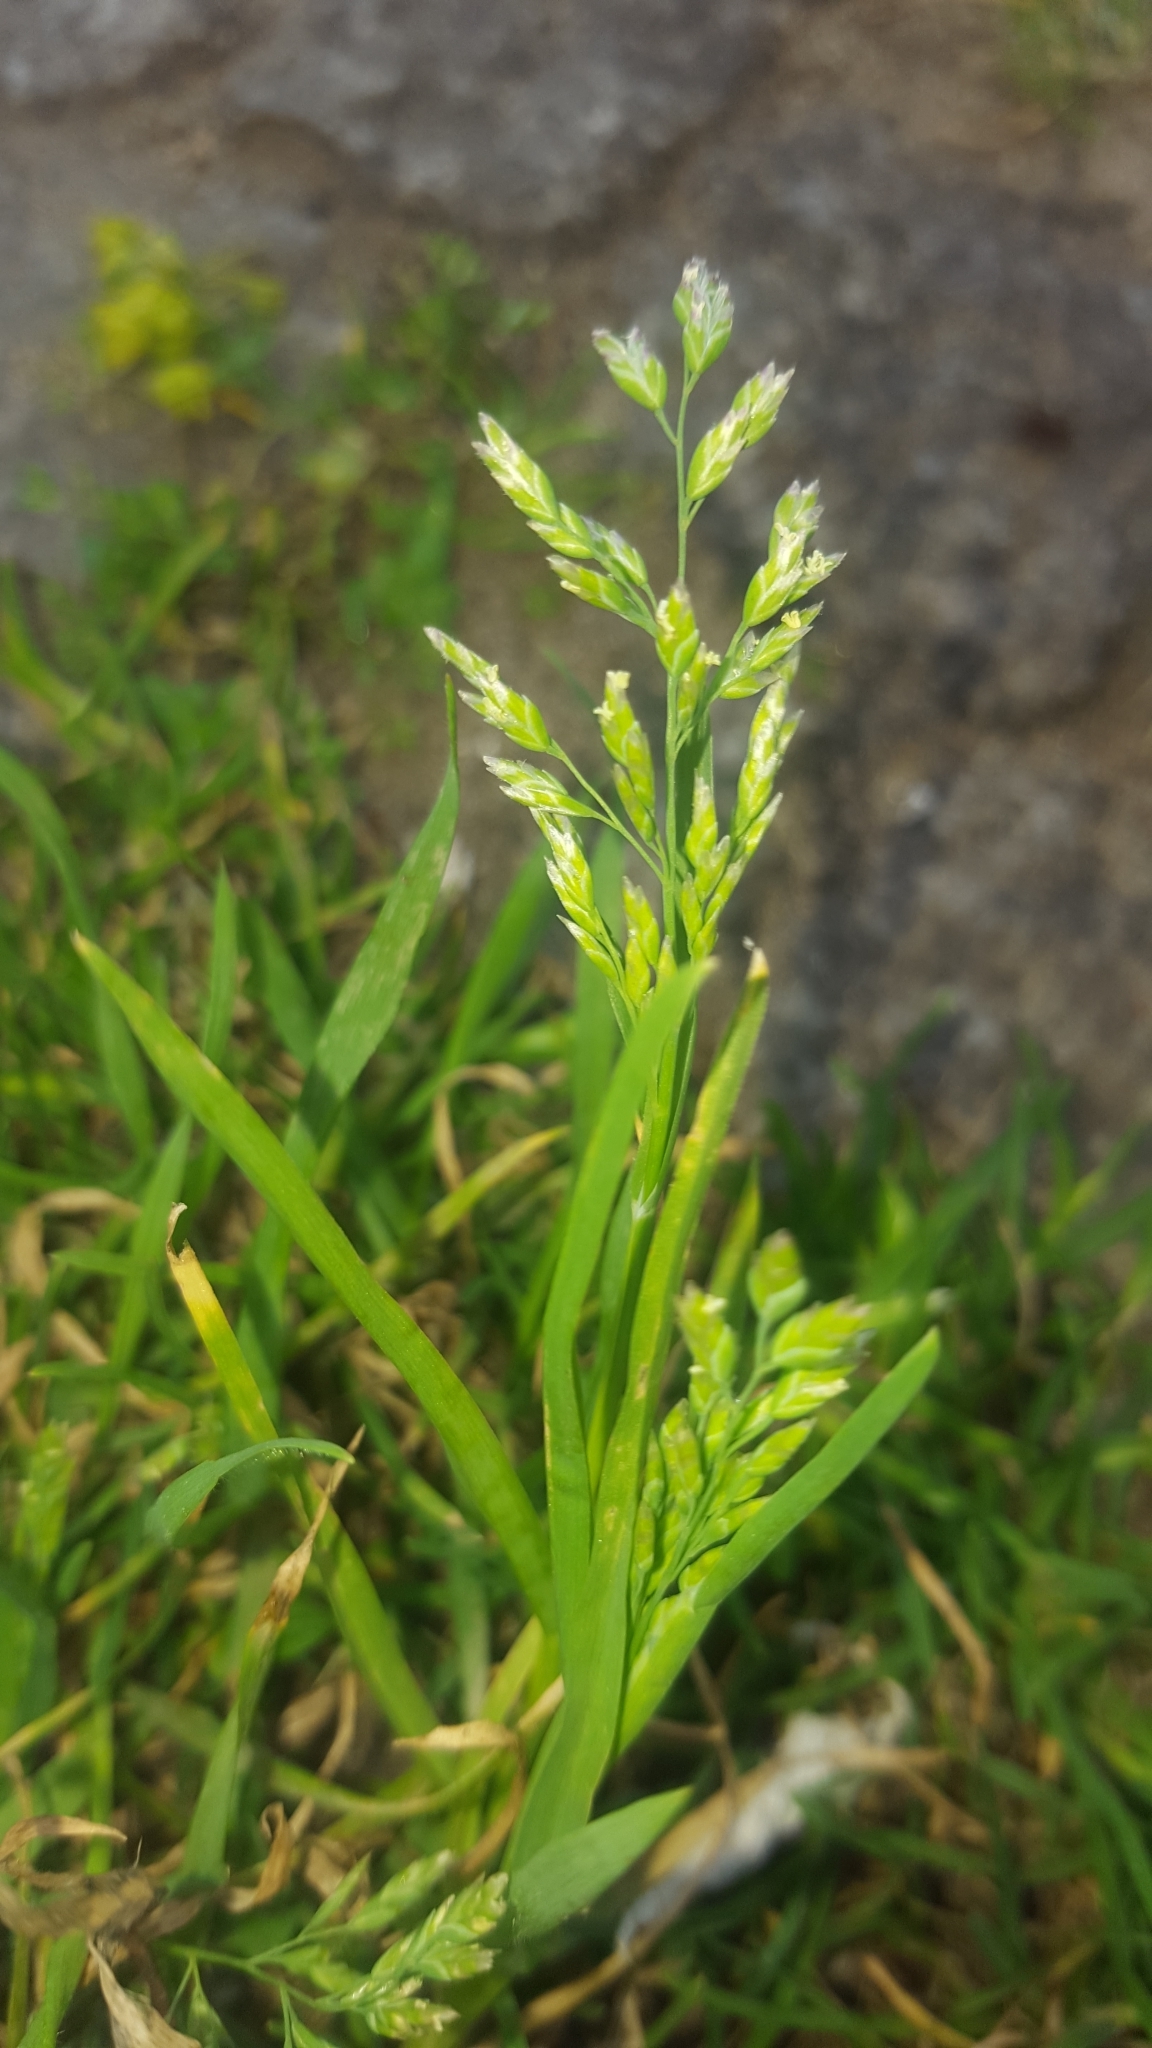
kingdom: Plantae
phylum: Tracheophyta
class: Liliopsida
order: Poales
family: Poaceae
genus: Poa
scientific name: Poa annua
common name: Annual bluegrass
